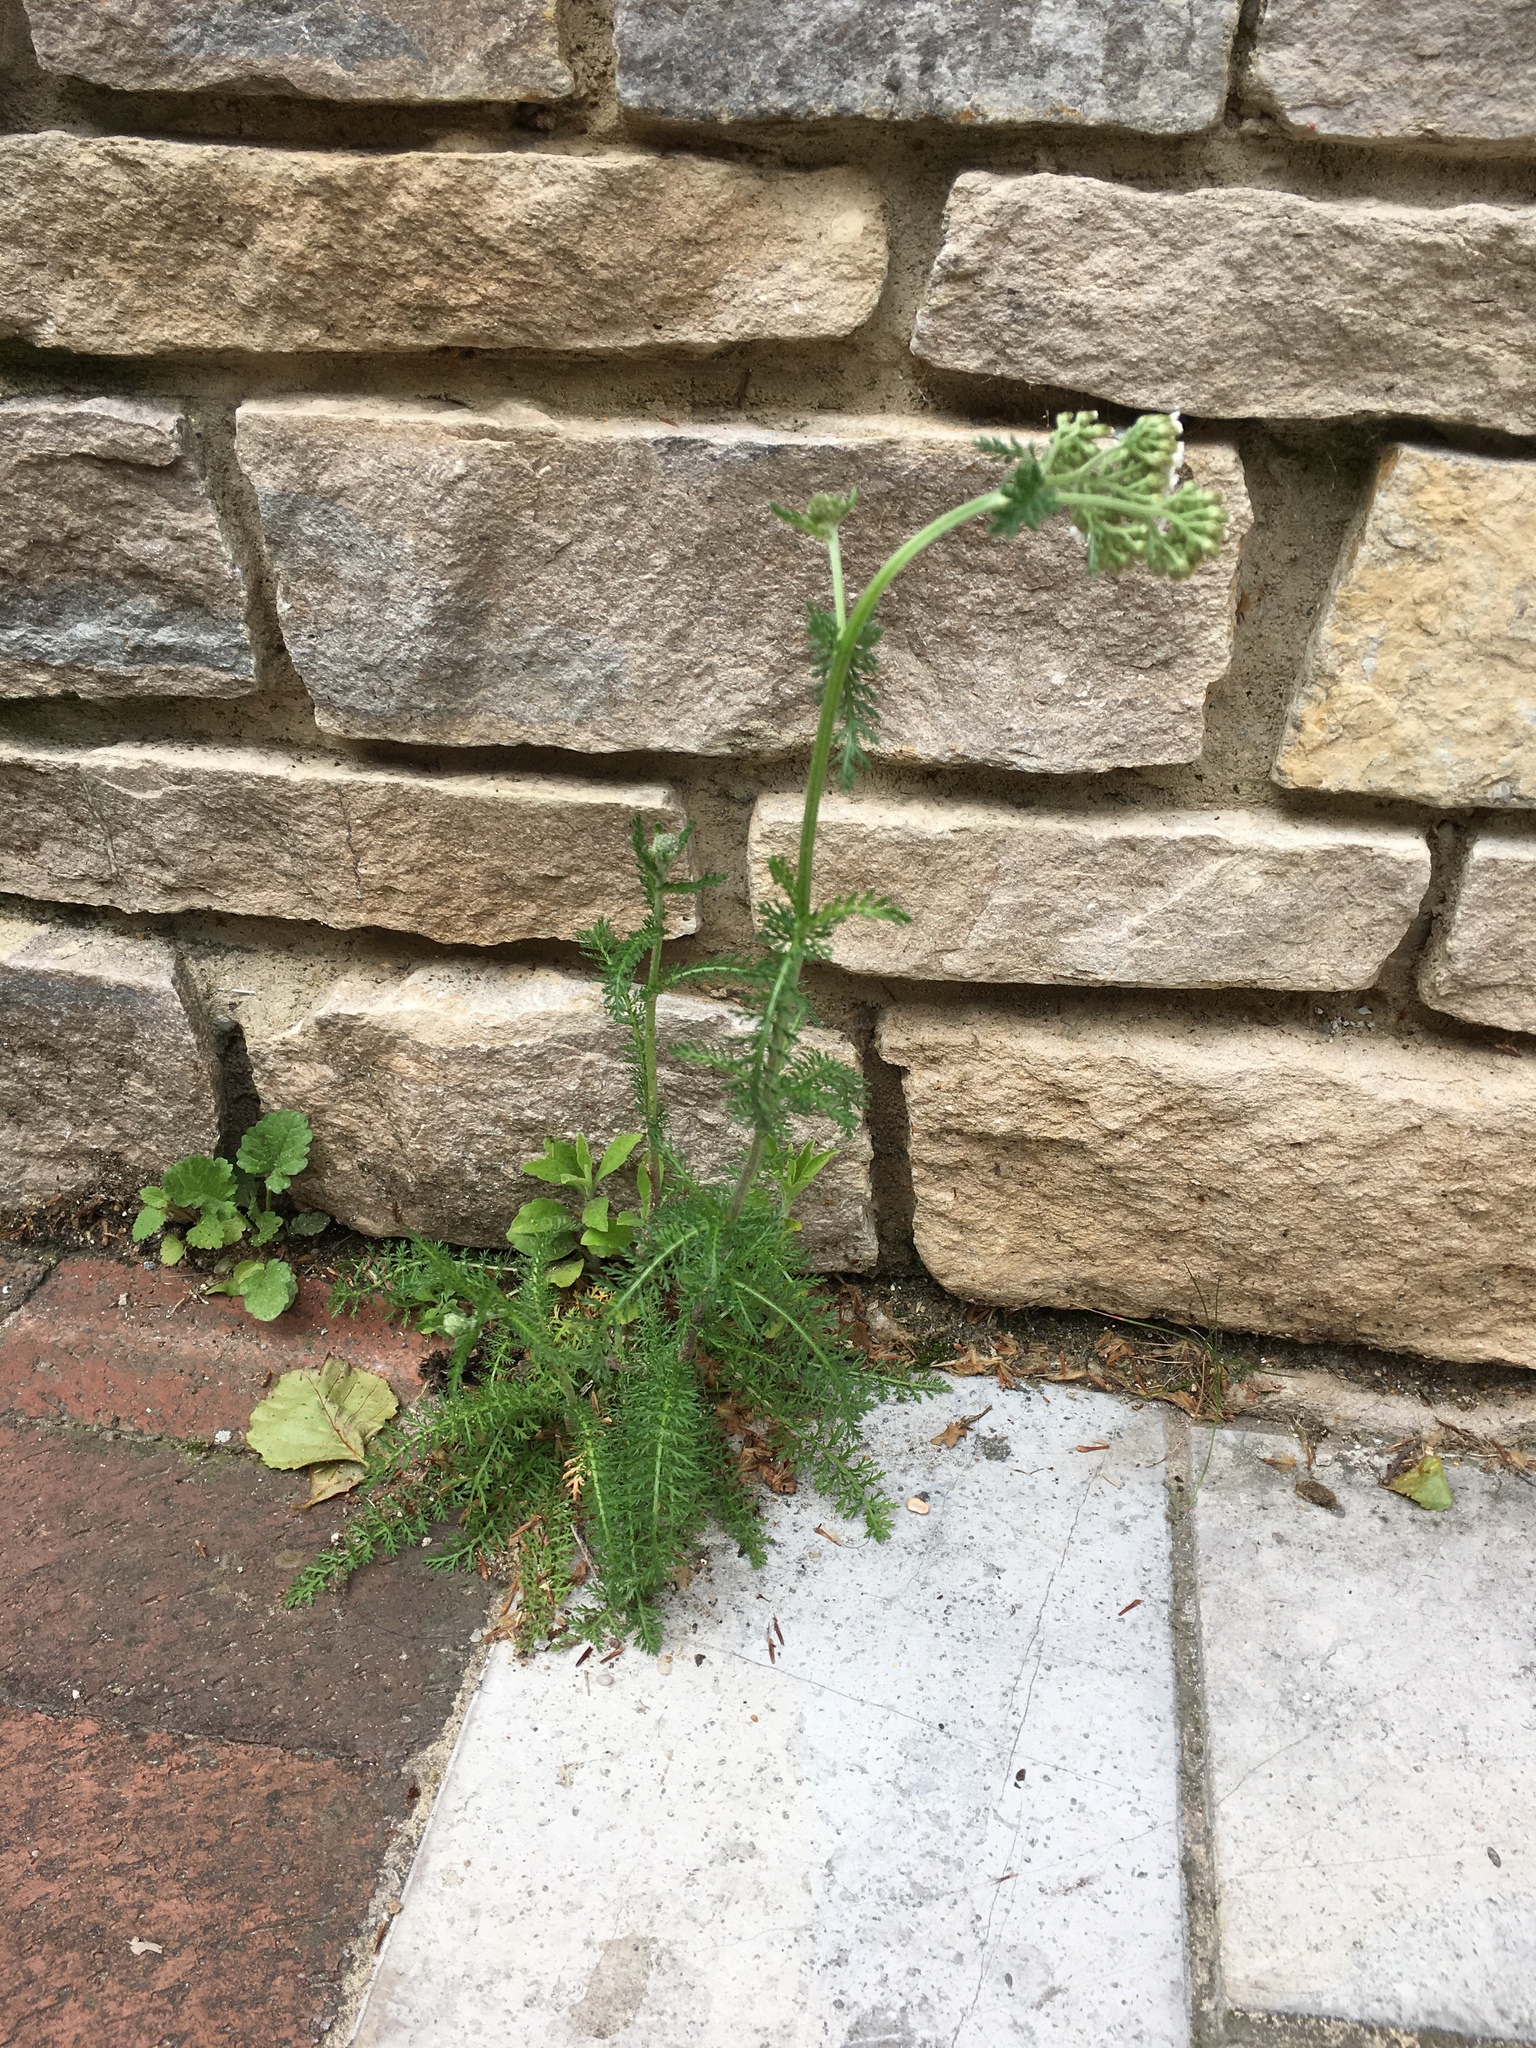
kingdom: Plantae
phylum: Tracheophyta
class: Magnoliopsida
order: Asterales
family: Asteraceae
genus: Achillea
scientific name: Achillea millefolium
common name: Yarrow
